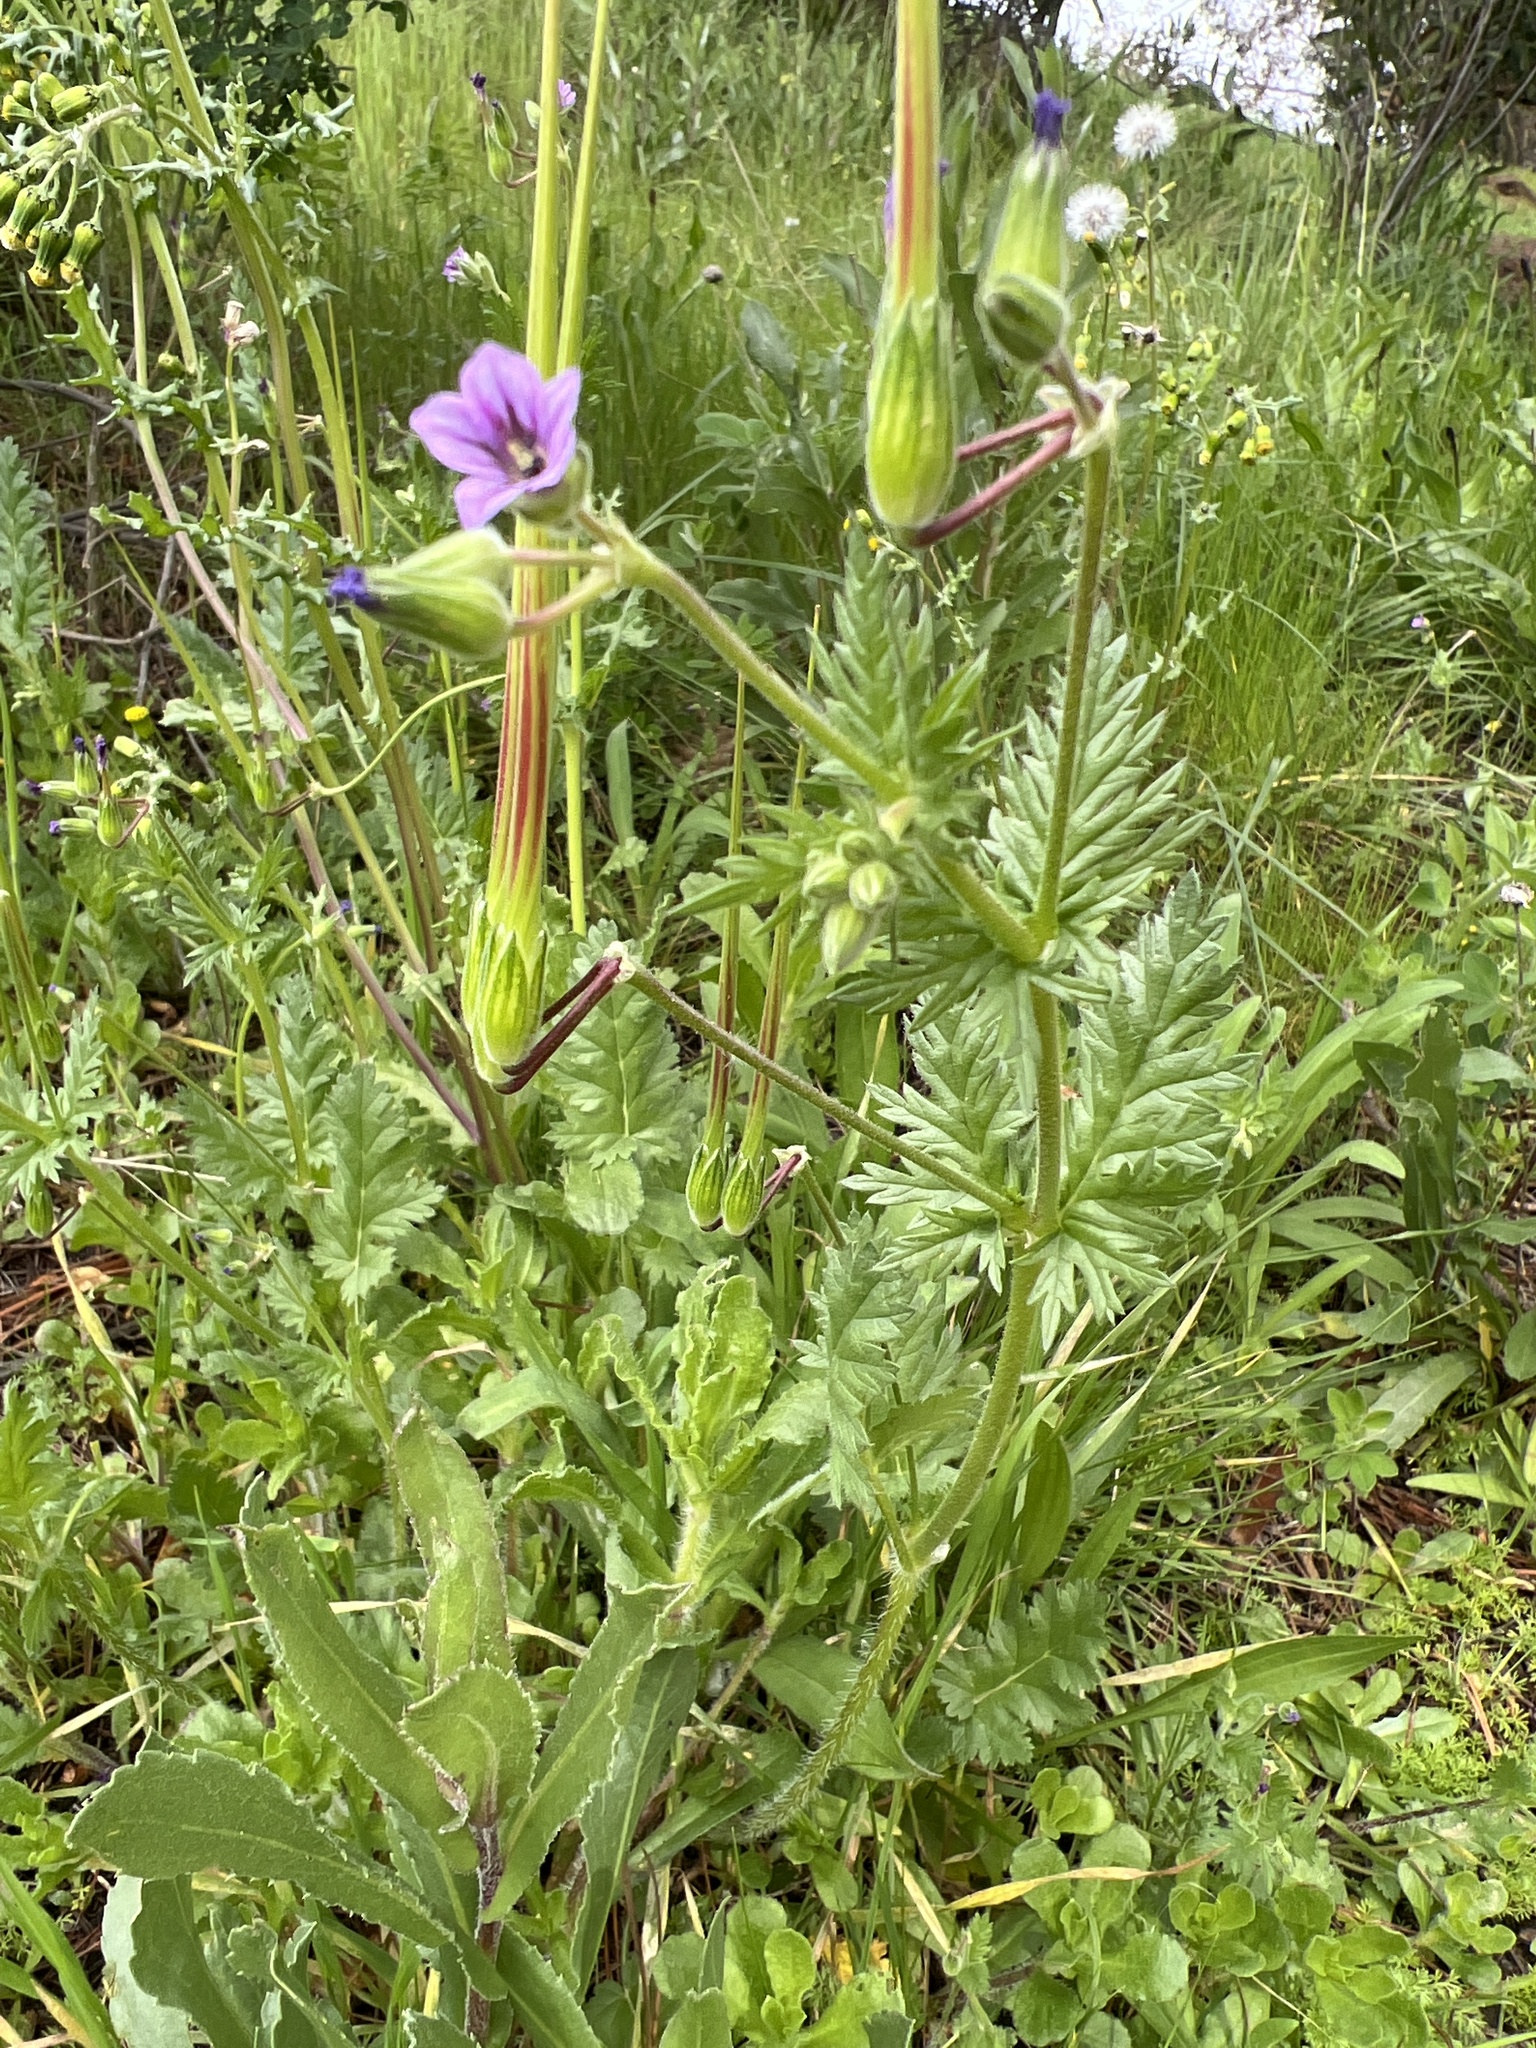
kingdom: Plantae
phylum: Tracheophyta
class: Magnoliopsida
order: Geraniales
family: Geraniaceae
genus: Erodium
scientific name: Erodium brachycarpum
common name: Hairy-pitted stork's-bill
